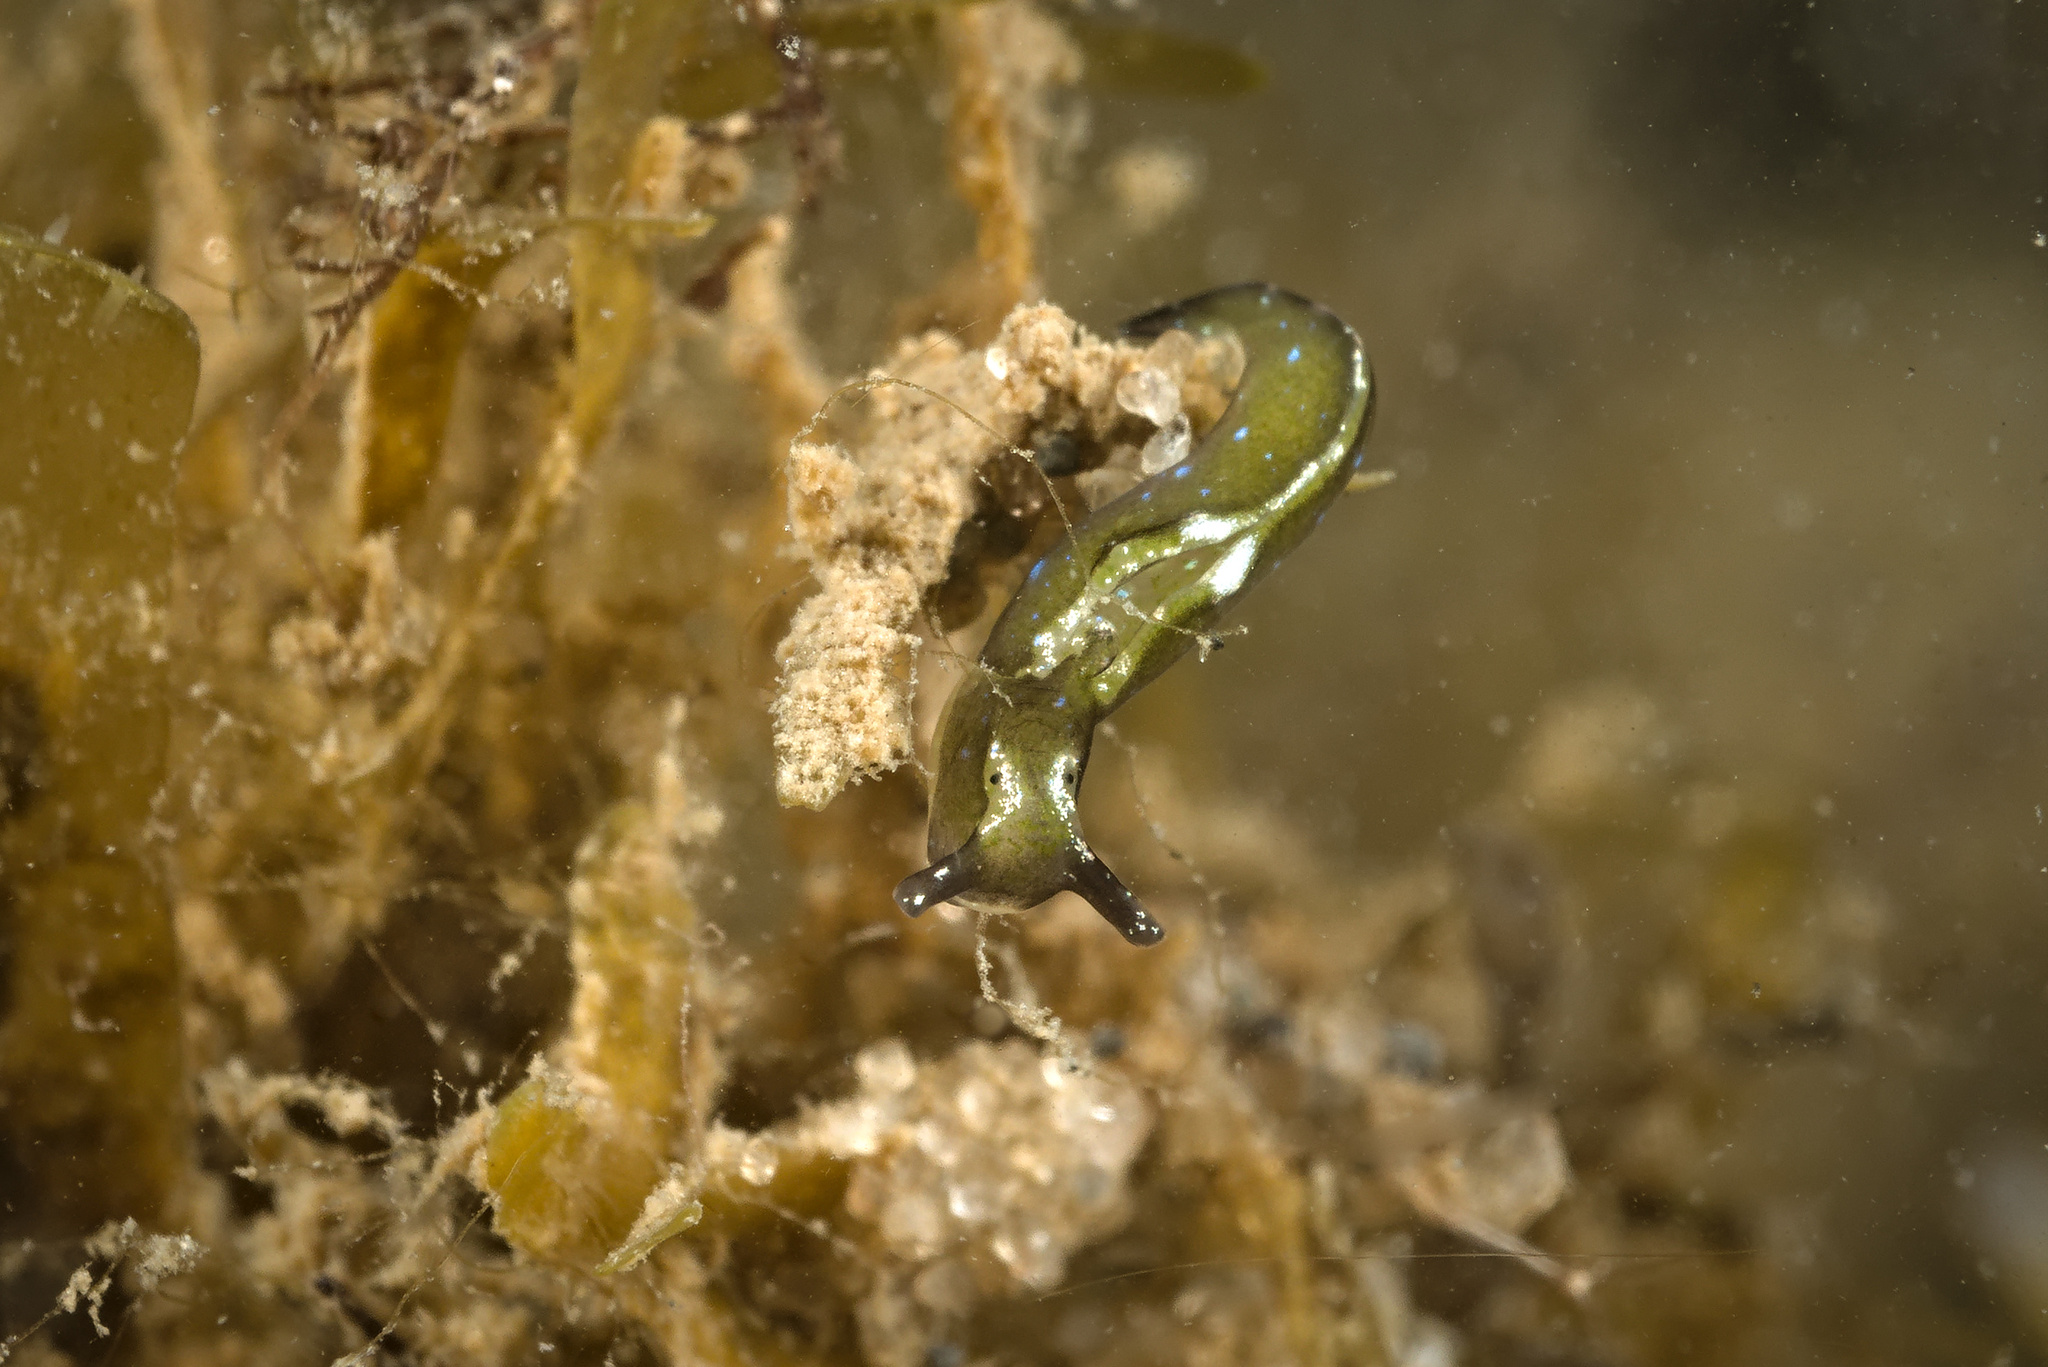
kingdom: Animalia
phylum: Mollusca
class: Gastropoda
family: Plakobranchidae
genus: Elysia
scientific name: Elysia viridis
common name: Green elysia
